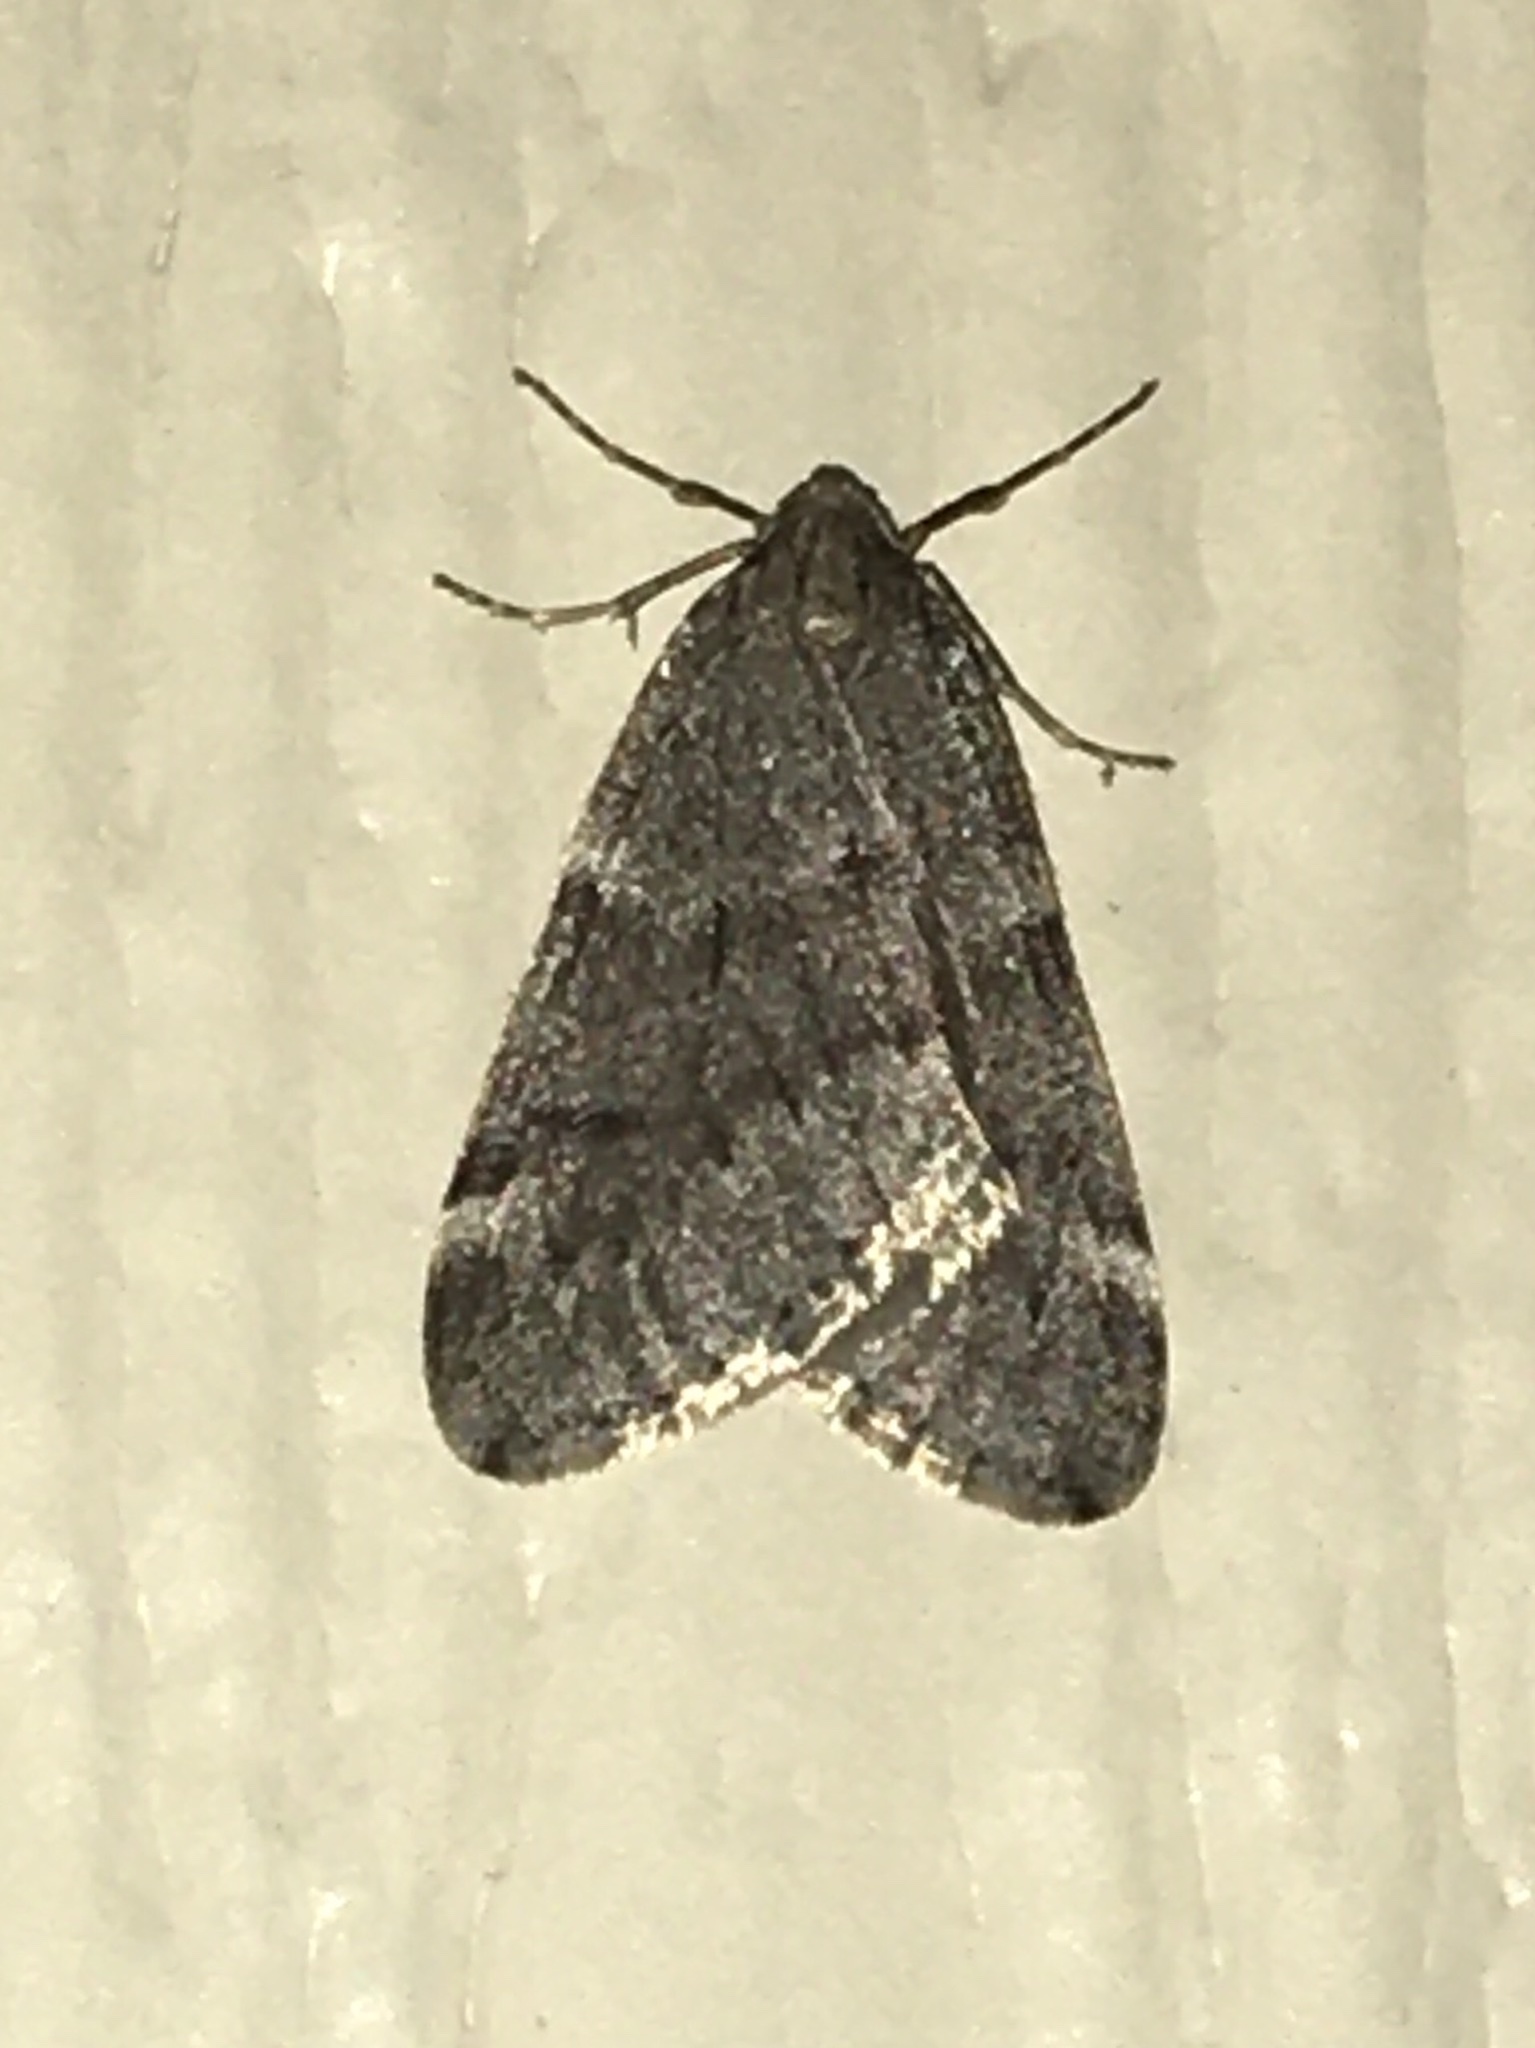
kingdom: Animalia
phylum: Arthropoda
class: Insecta
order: Lepidoptera
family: Geometridae
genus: Alsophila
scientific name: Alsophila pometaria
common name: Fall cankerworm
